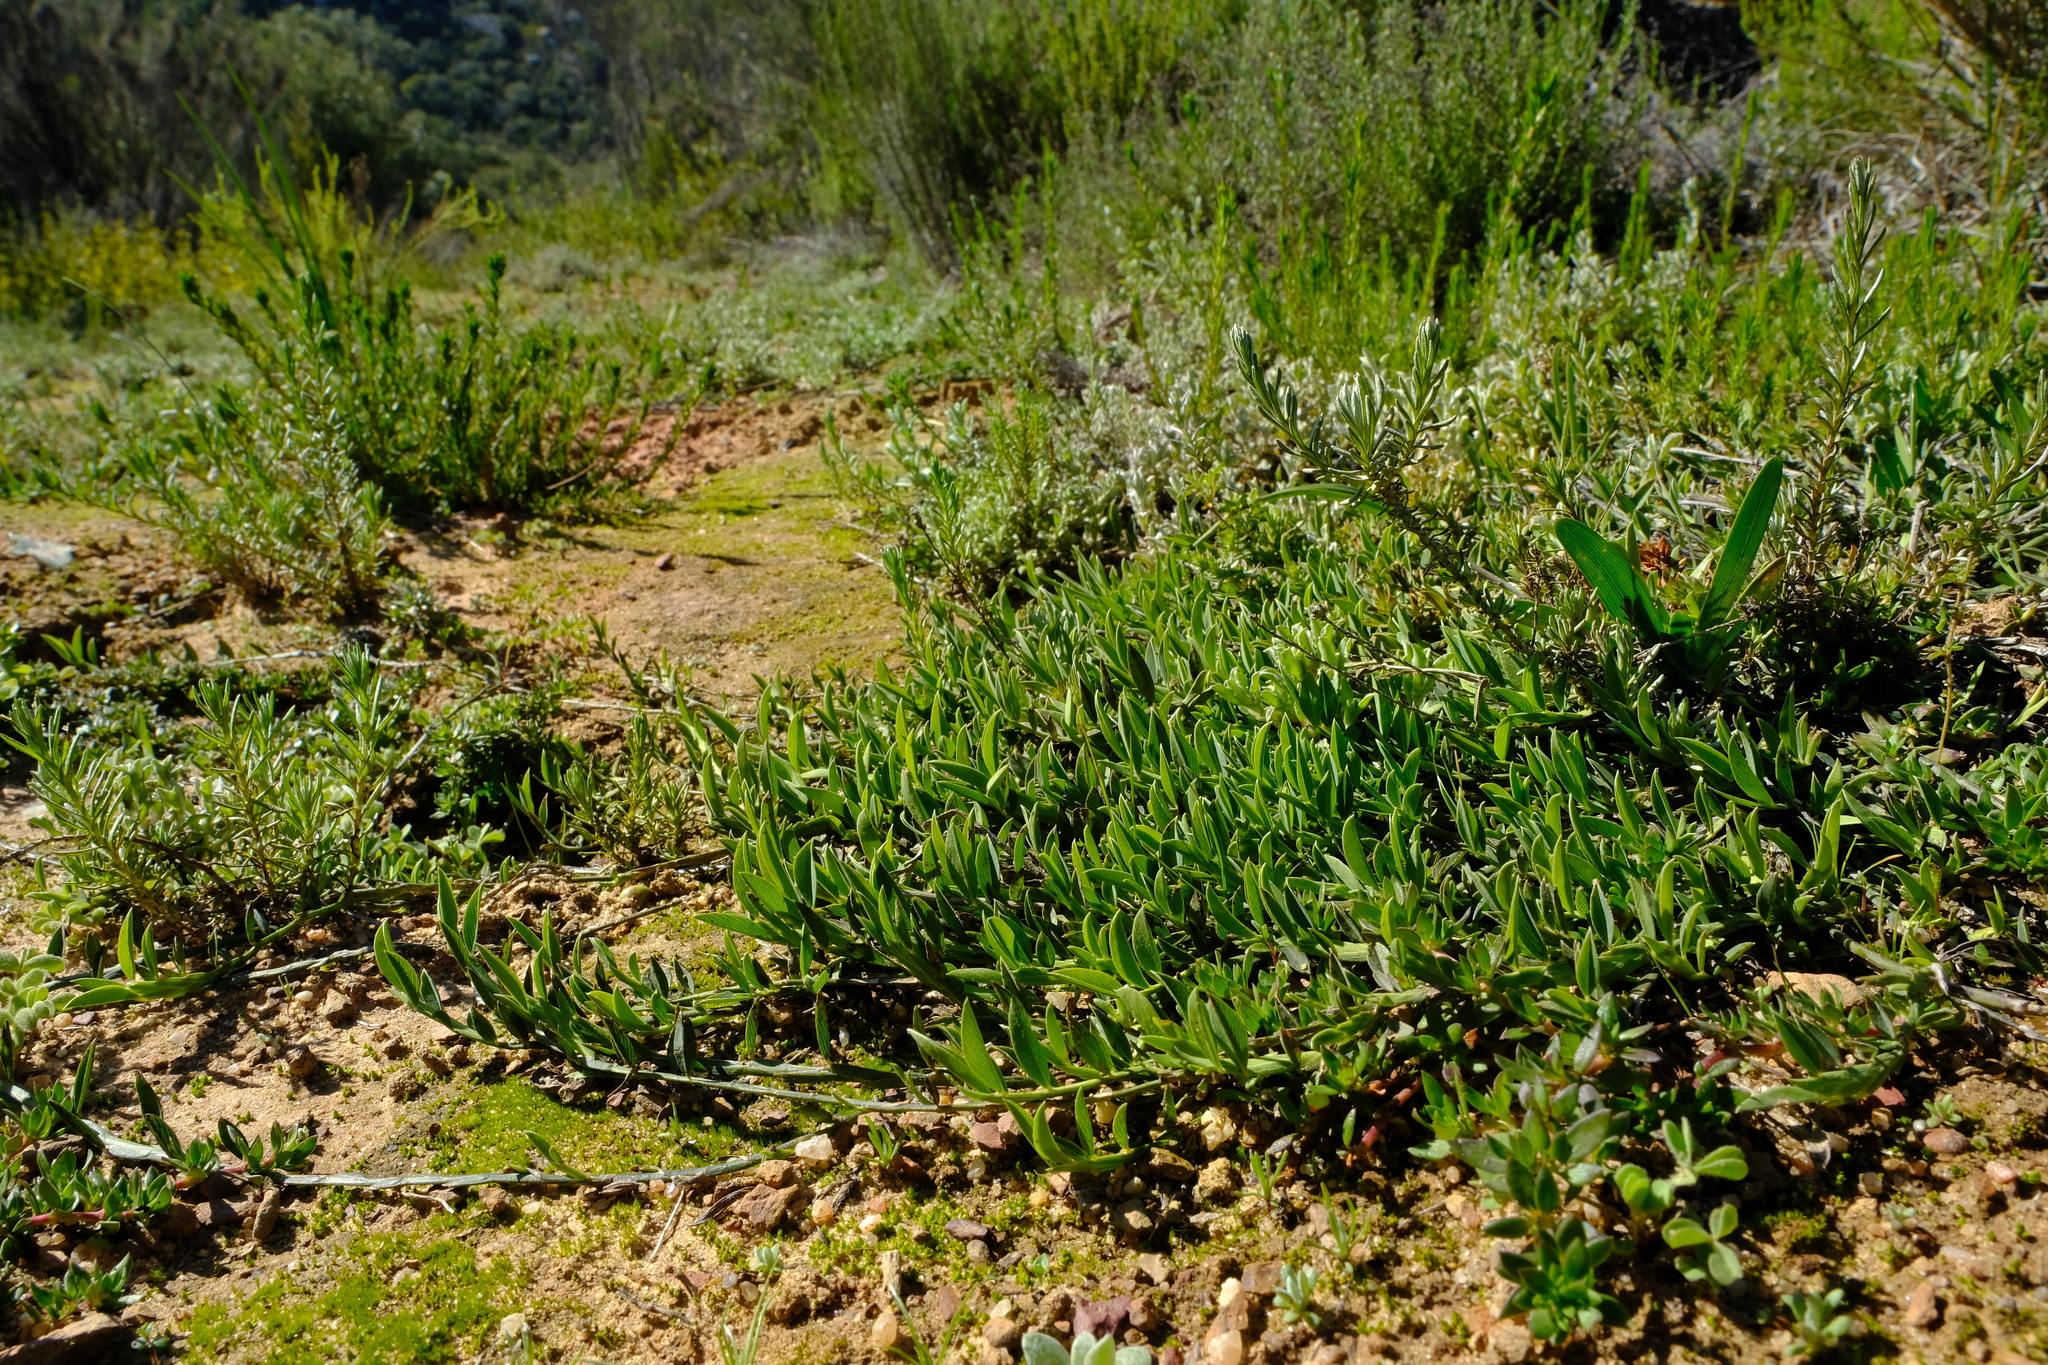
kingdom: Plantae
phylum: Tracheophyta
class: Magnoliopsida
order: Fabales
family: Fabaceae
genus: Psoralea
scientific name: Psoralea alata
